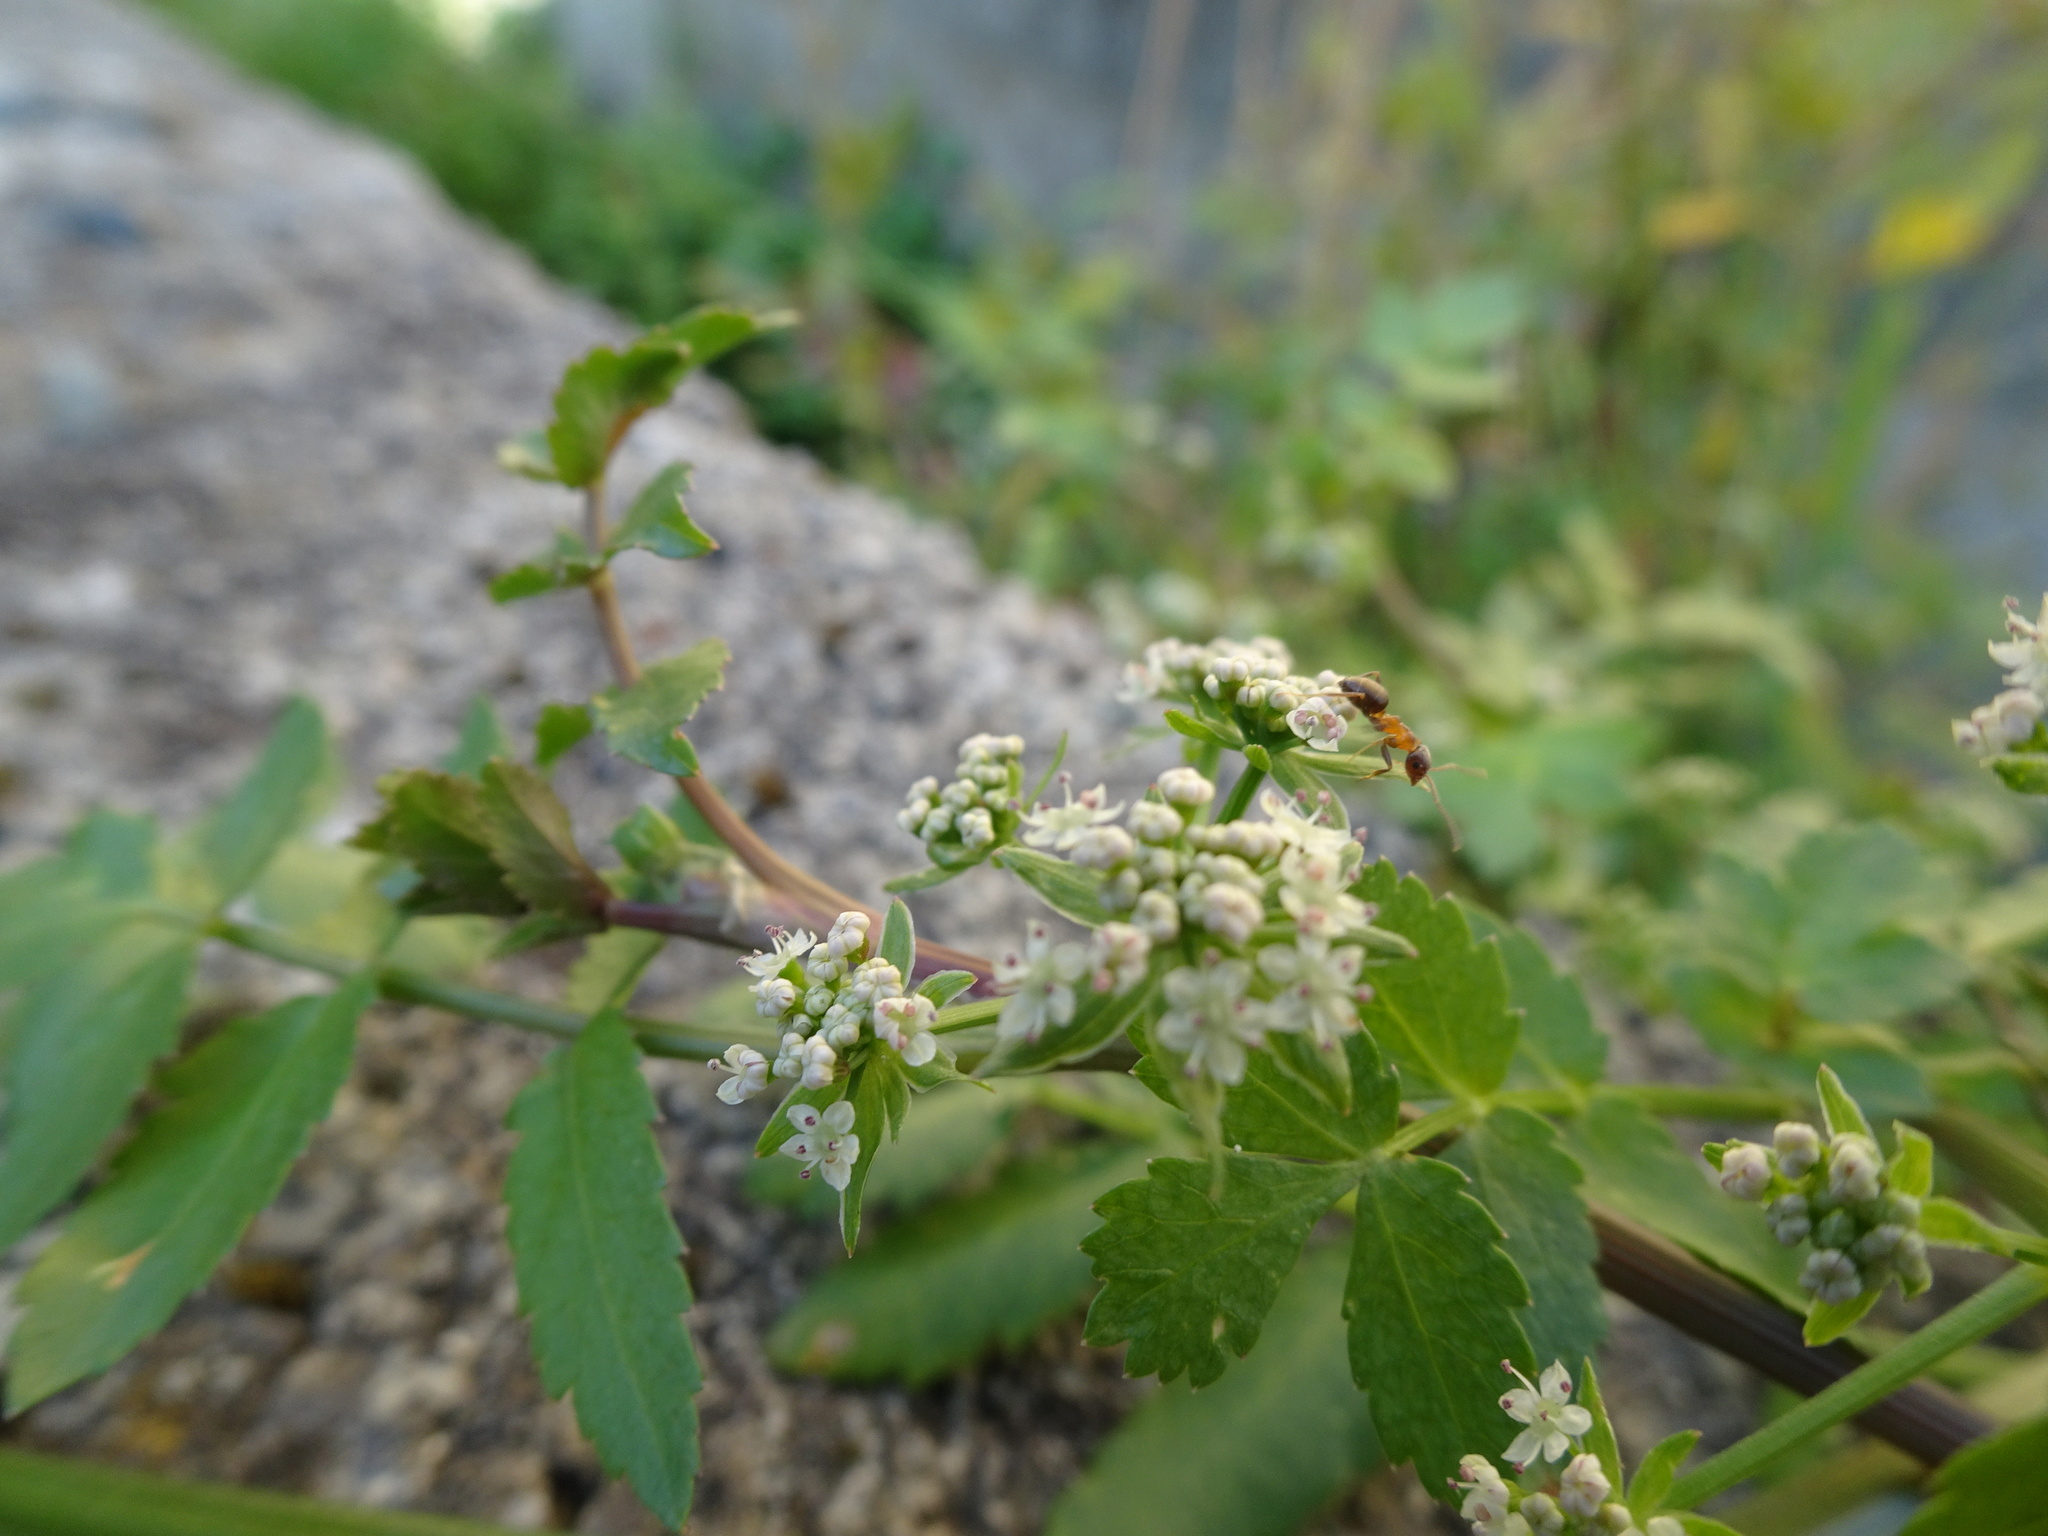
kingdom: Plantae
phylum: Tracheophyta
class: Magnoliopsida
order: Apiales
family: Apiaceae
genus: Helosciadium
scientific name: Helosciadium nodiflorum
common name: Fool's-watercress
